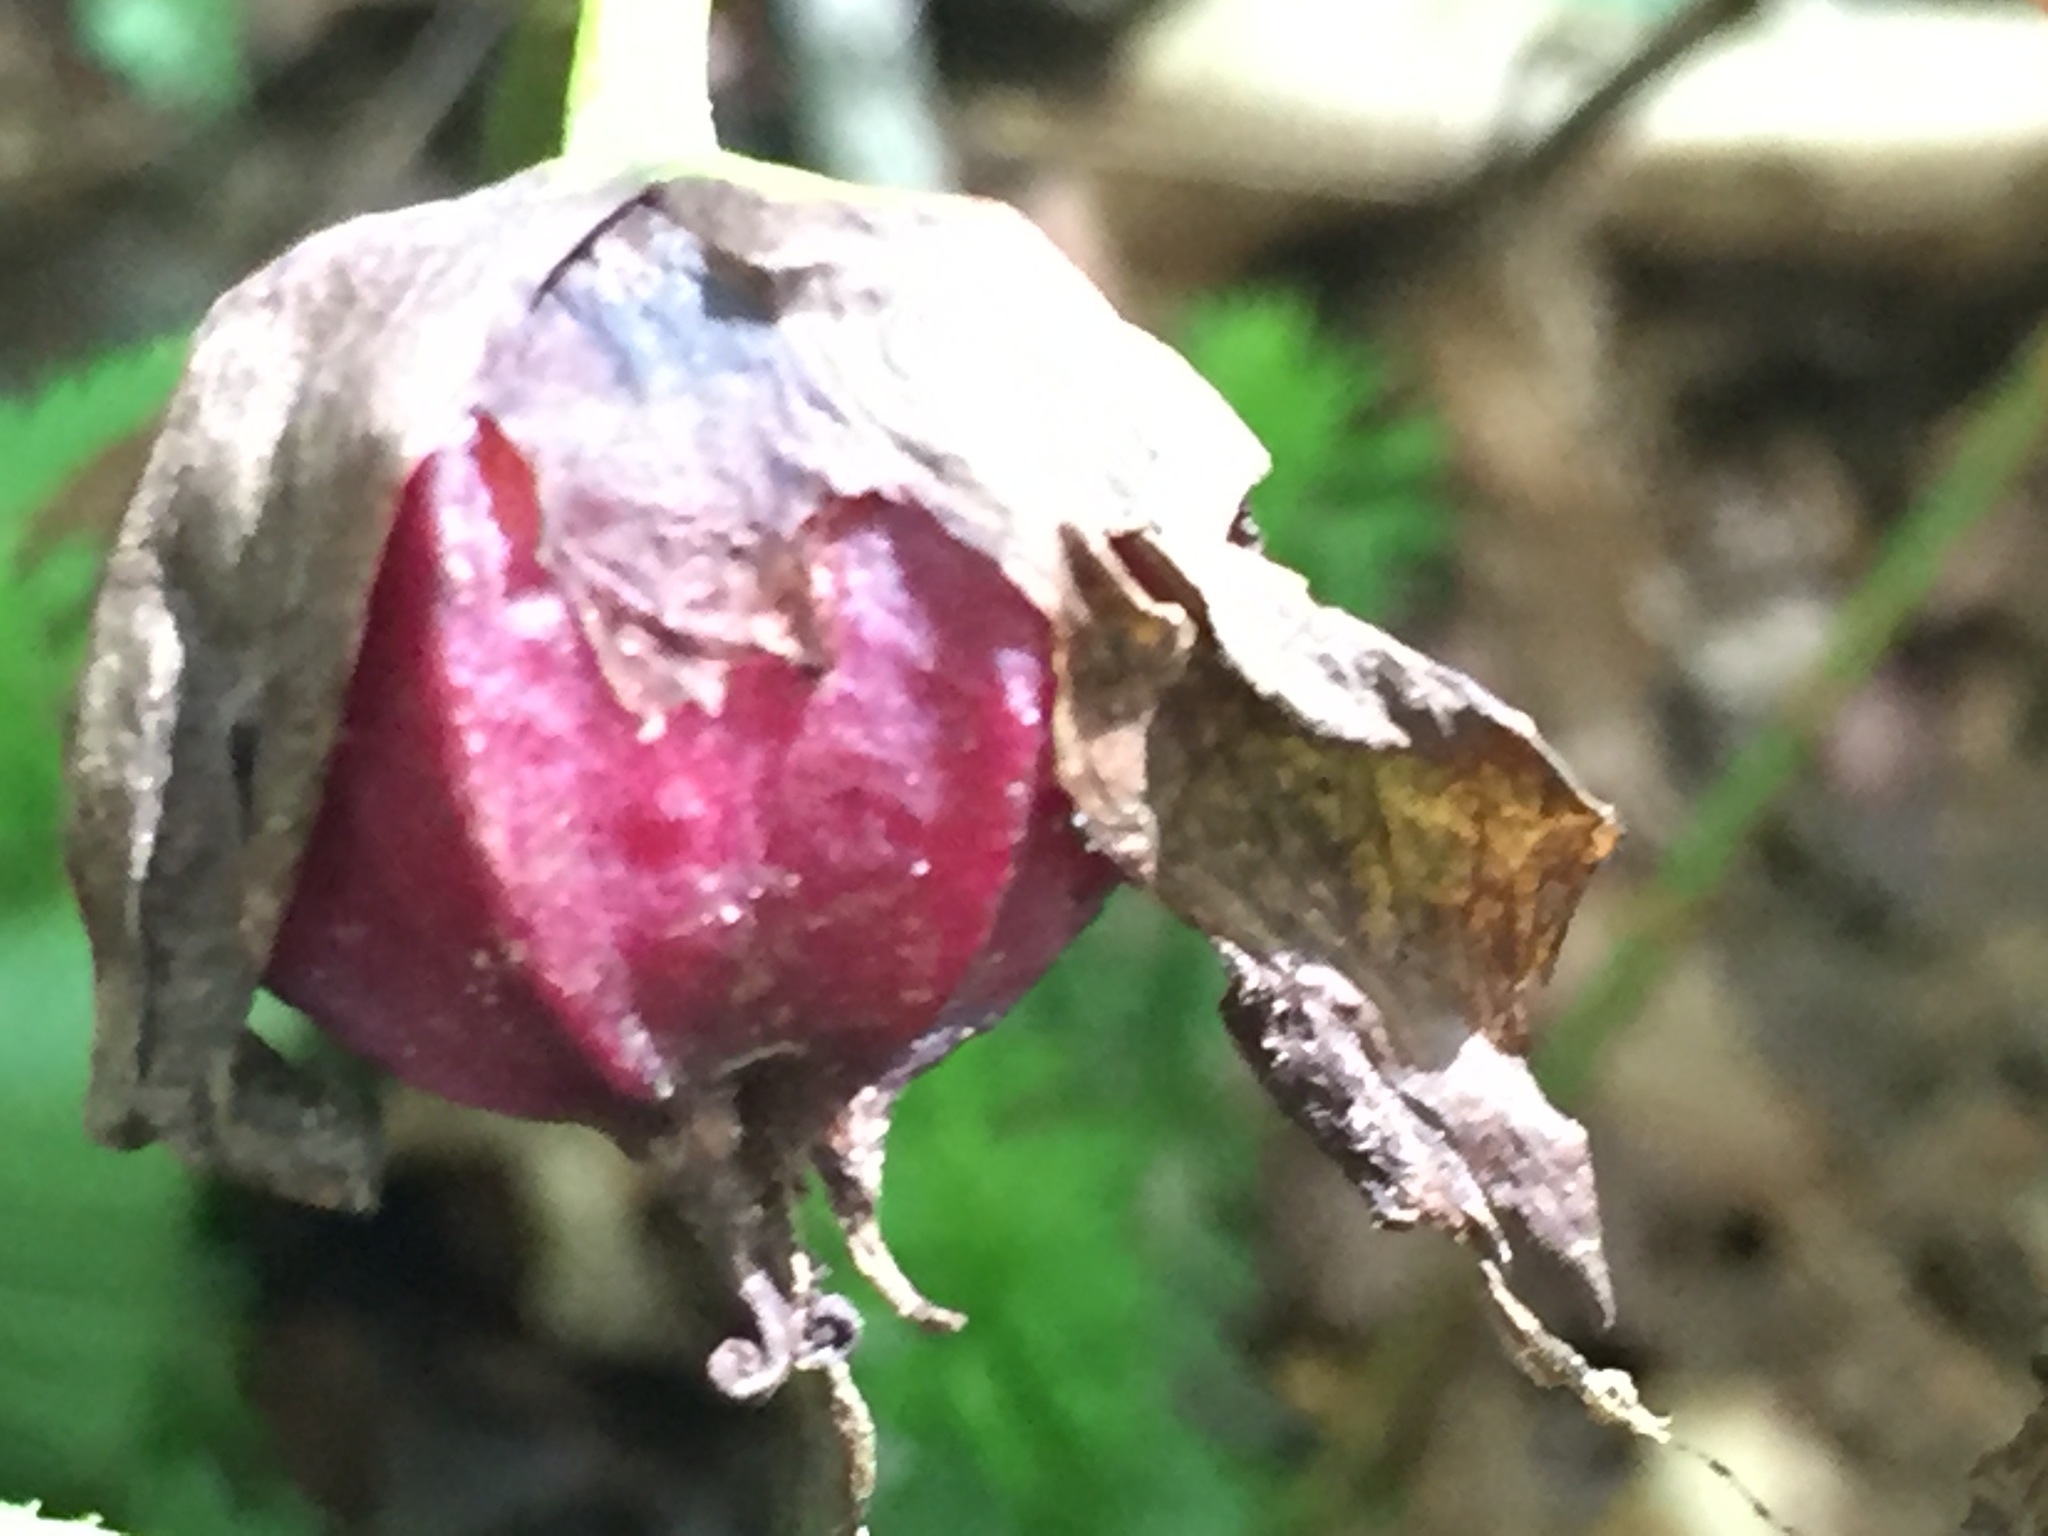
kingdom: Plantae
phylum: Tracheophyta
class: Liliopsida
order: Liliales
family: Melanthiaceae
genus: Trillium
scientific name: Trillium erectum
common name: Purple trillium
